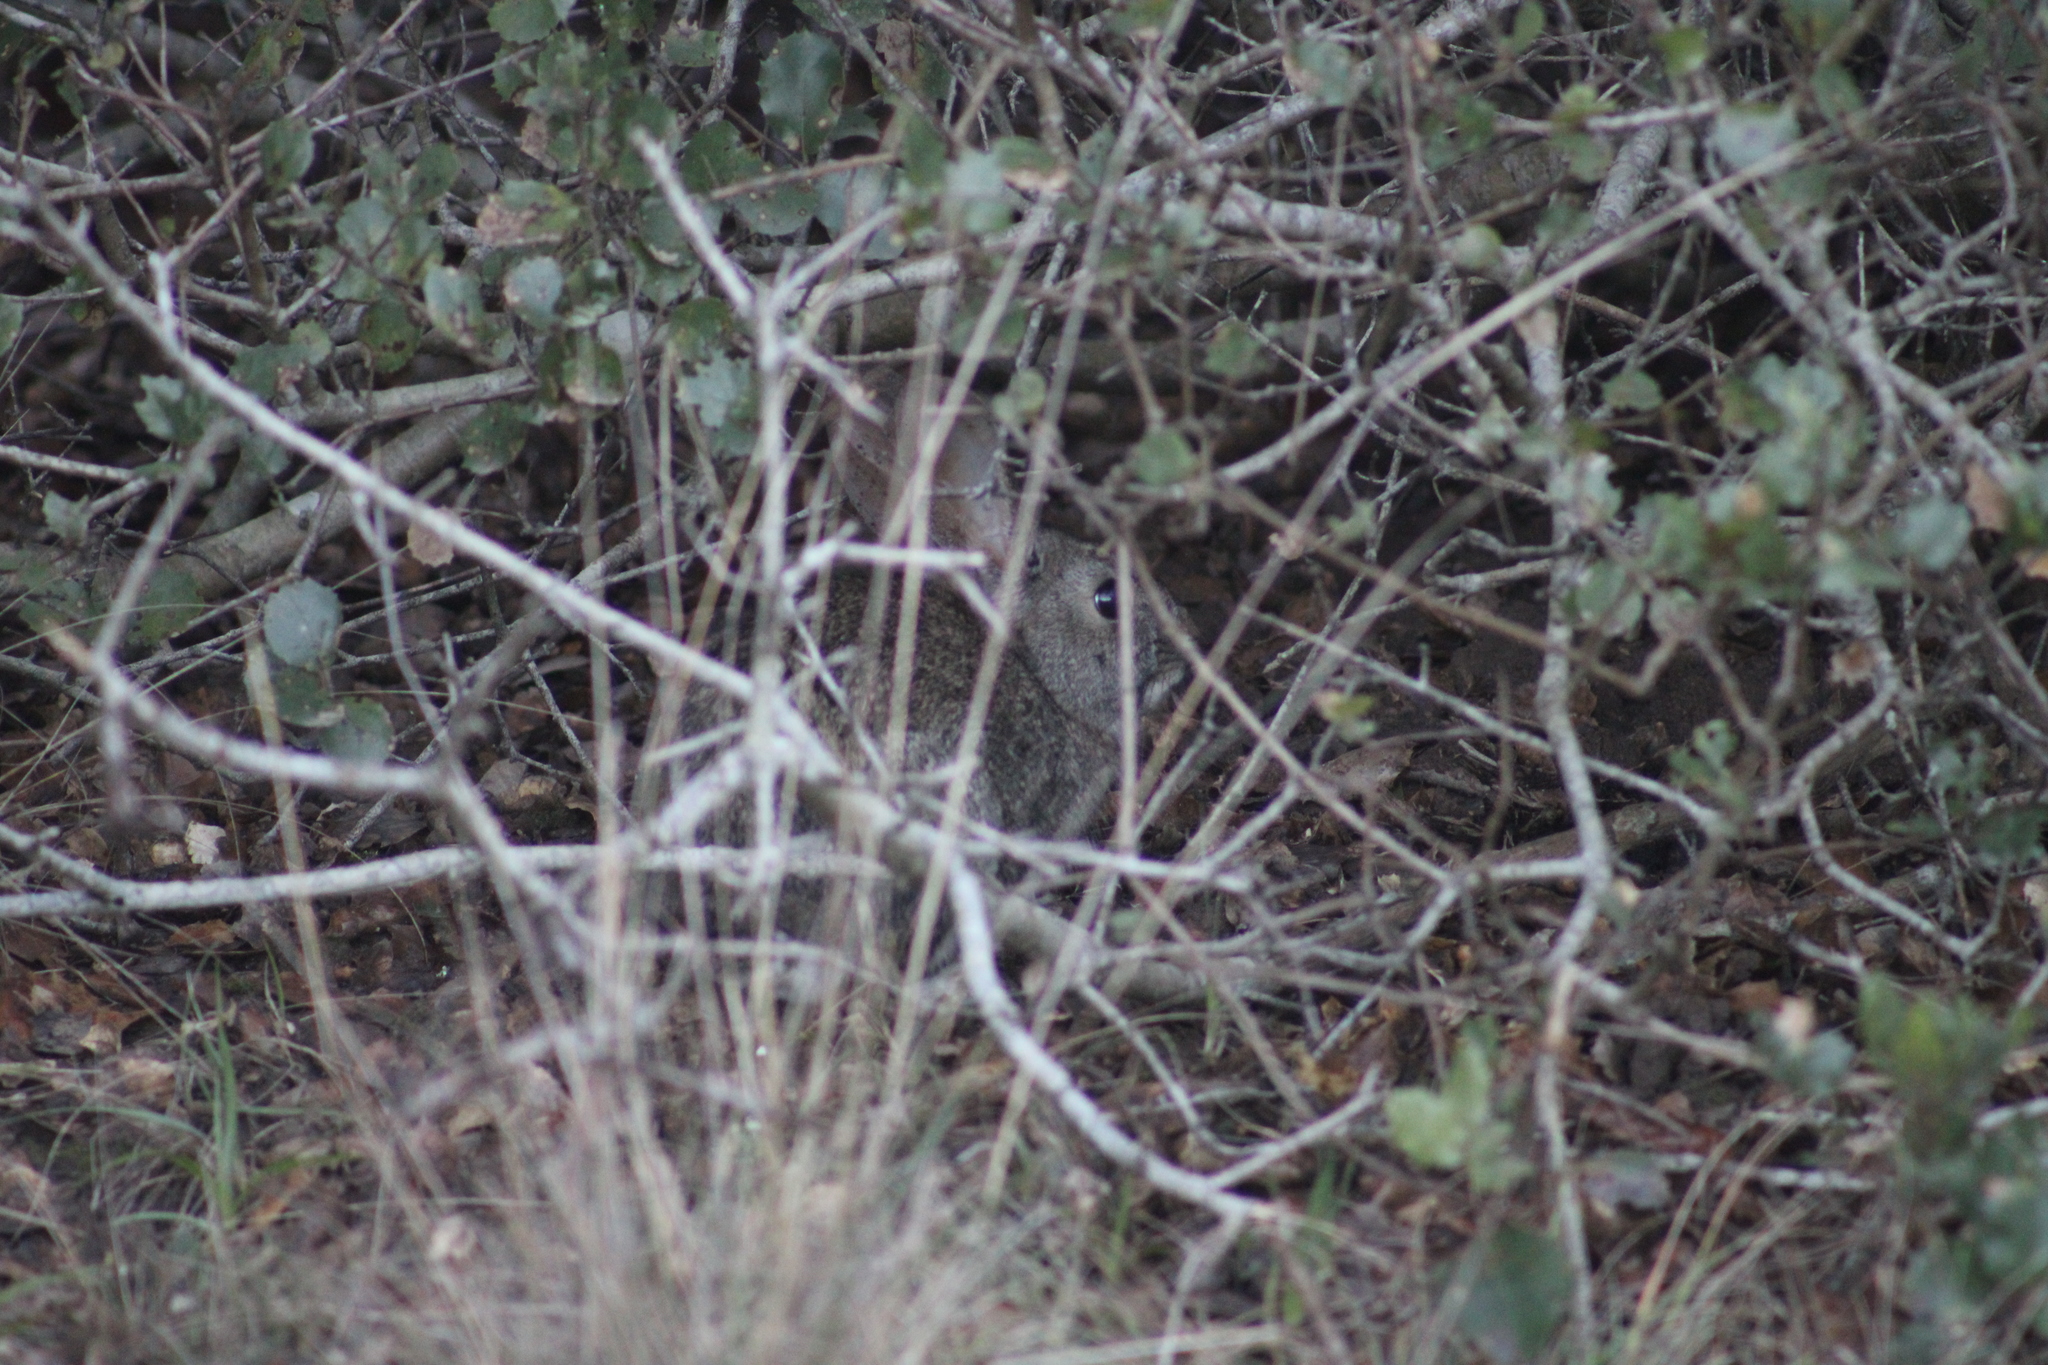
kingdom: Animalia
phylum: Chordata
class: Mammalia
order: Lagomorpha
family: Leporidae
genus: Sylvilagus
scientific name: Sylvilagus bachmani
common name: Brush rabbit
